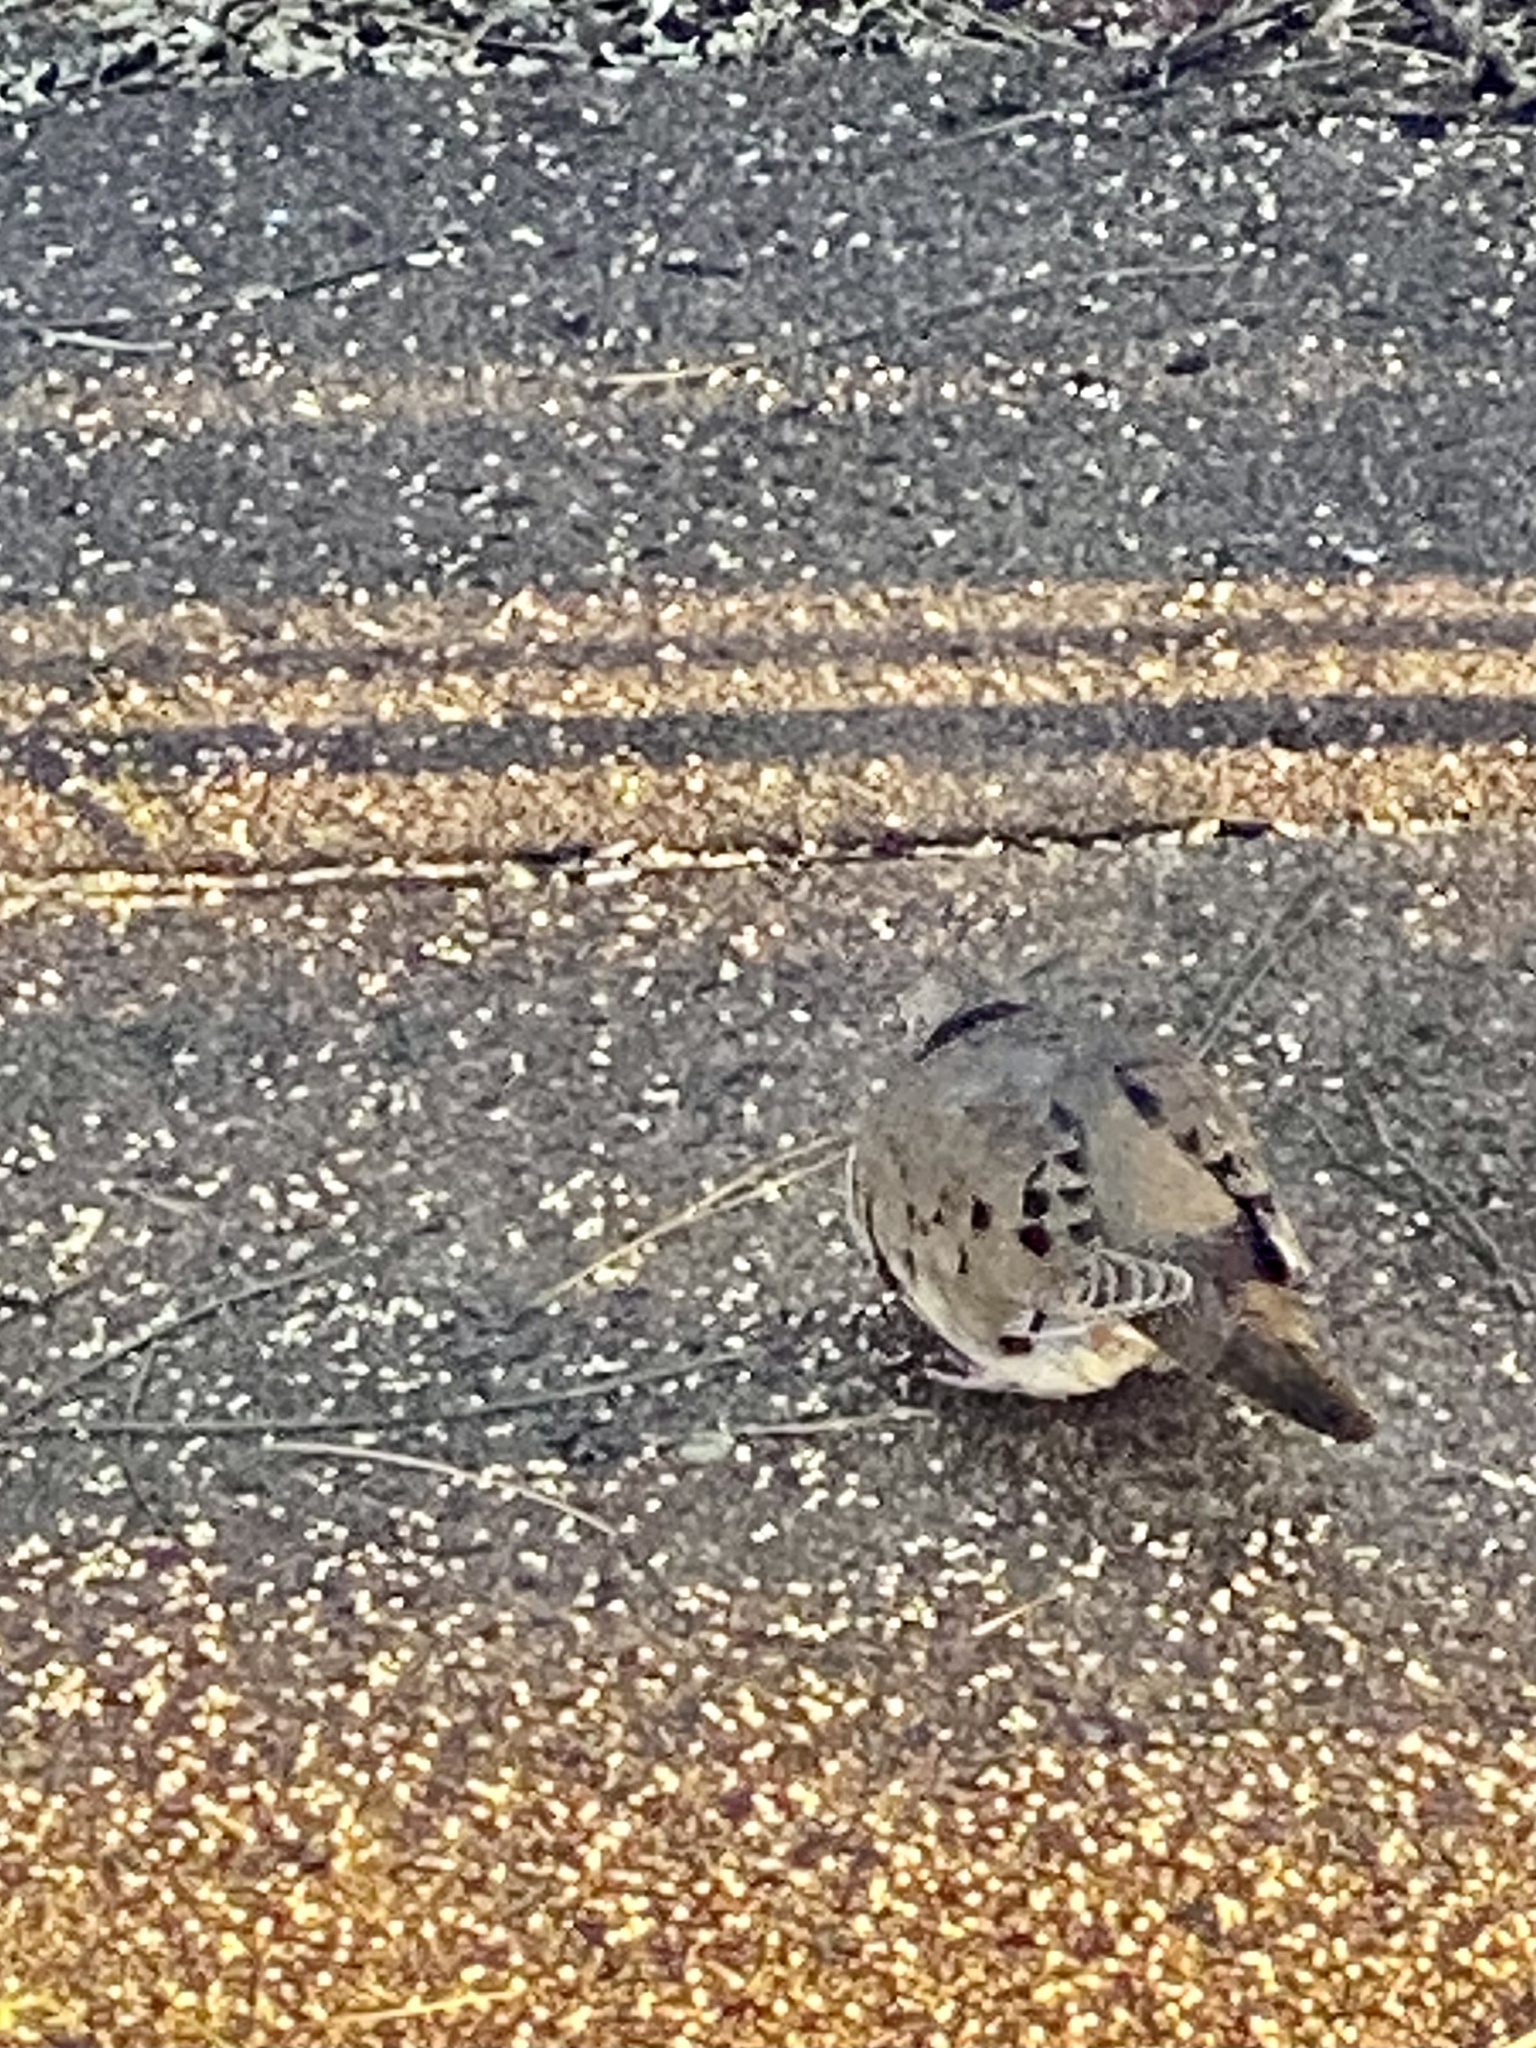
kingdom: Animalia
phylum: Chordata
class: Aves
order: Columbiformes
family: Columbidae
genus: Zenaida
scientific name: Zenaida macroura
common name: Mourning dove
